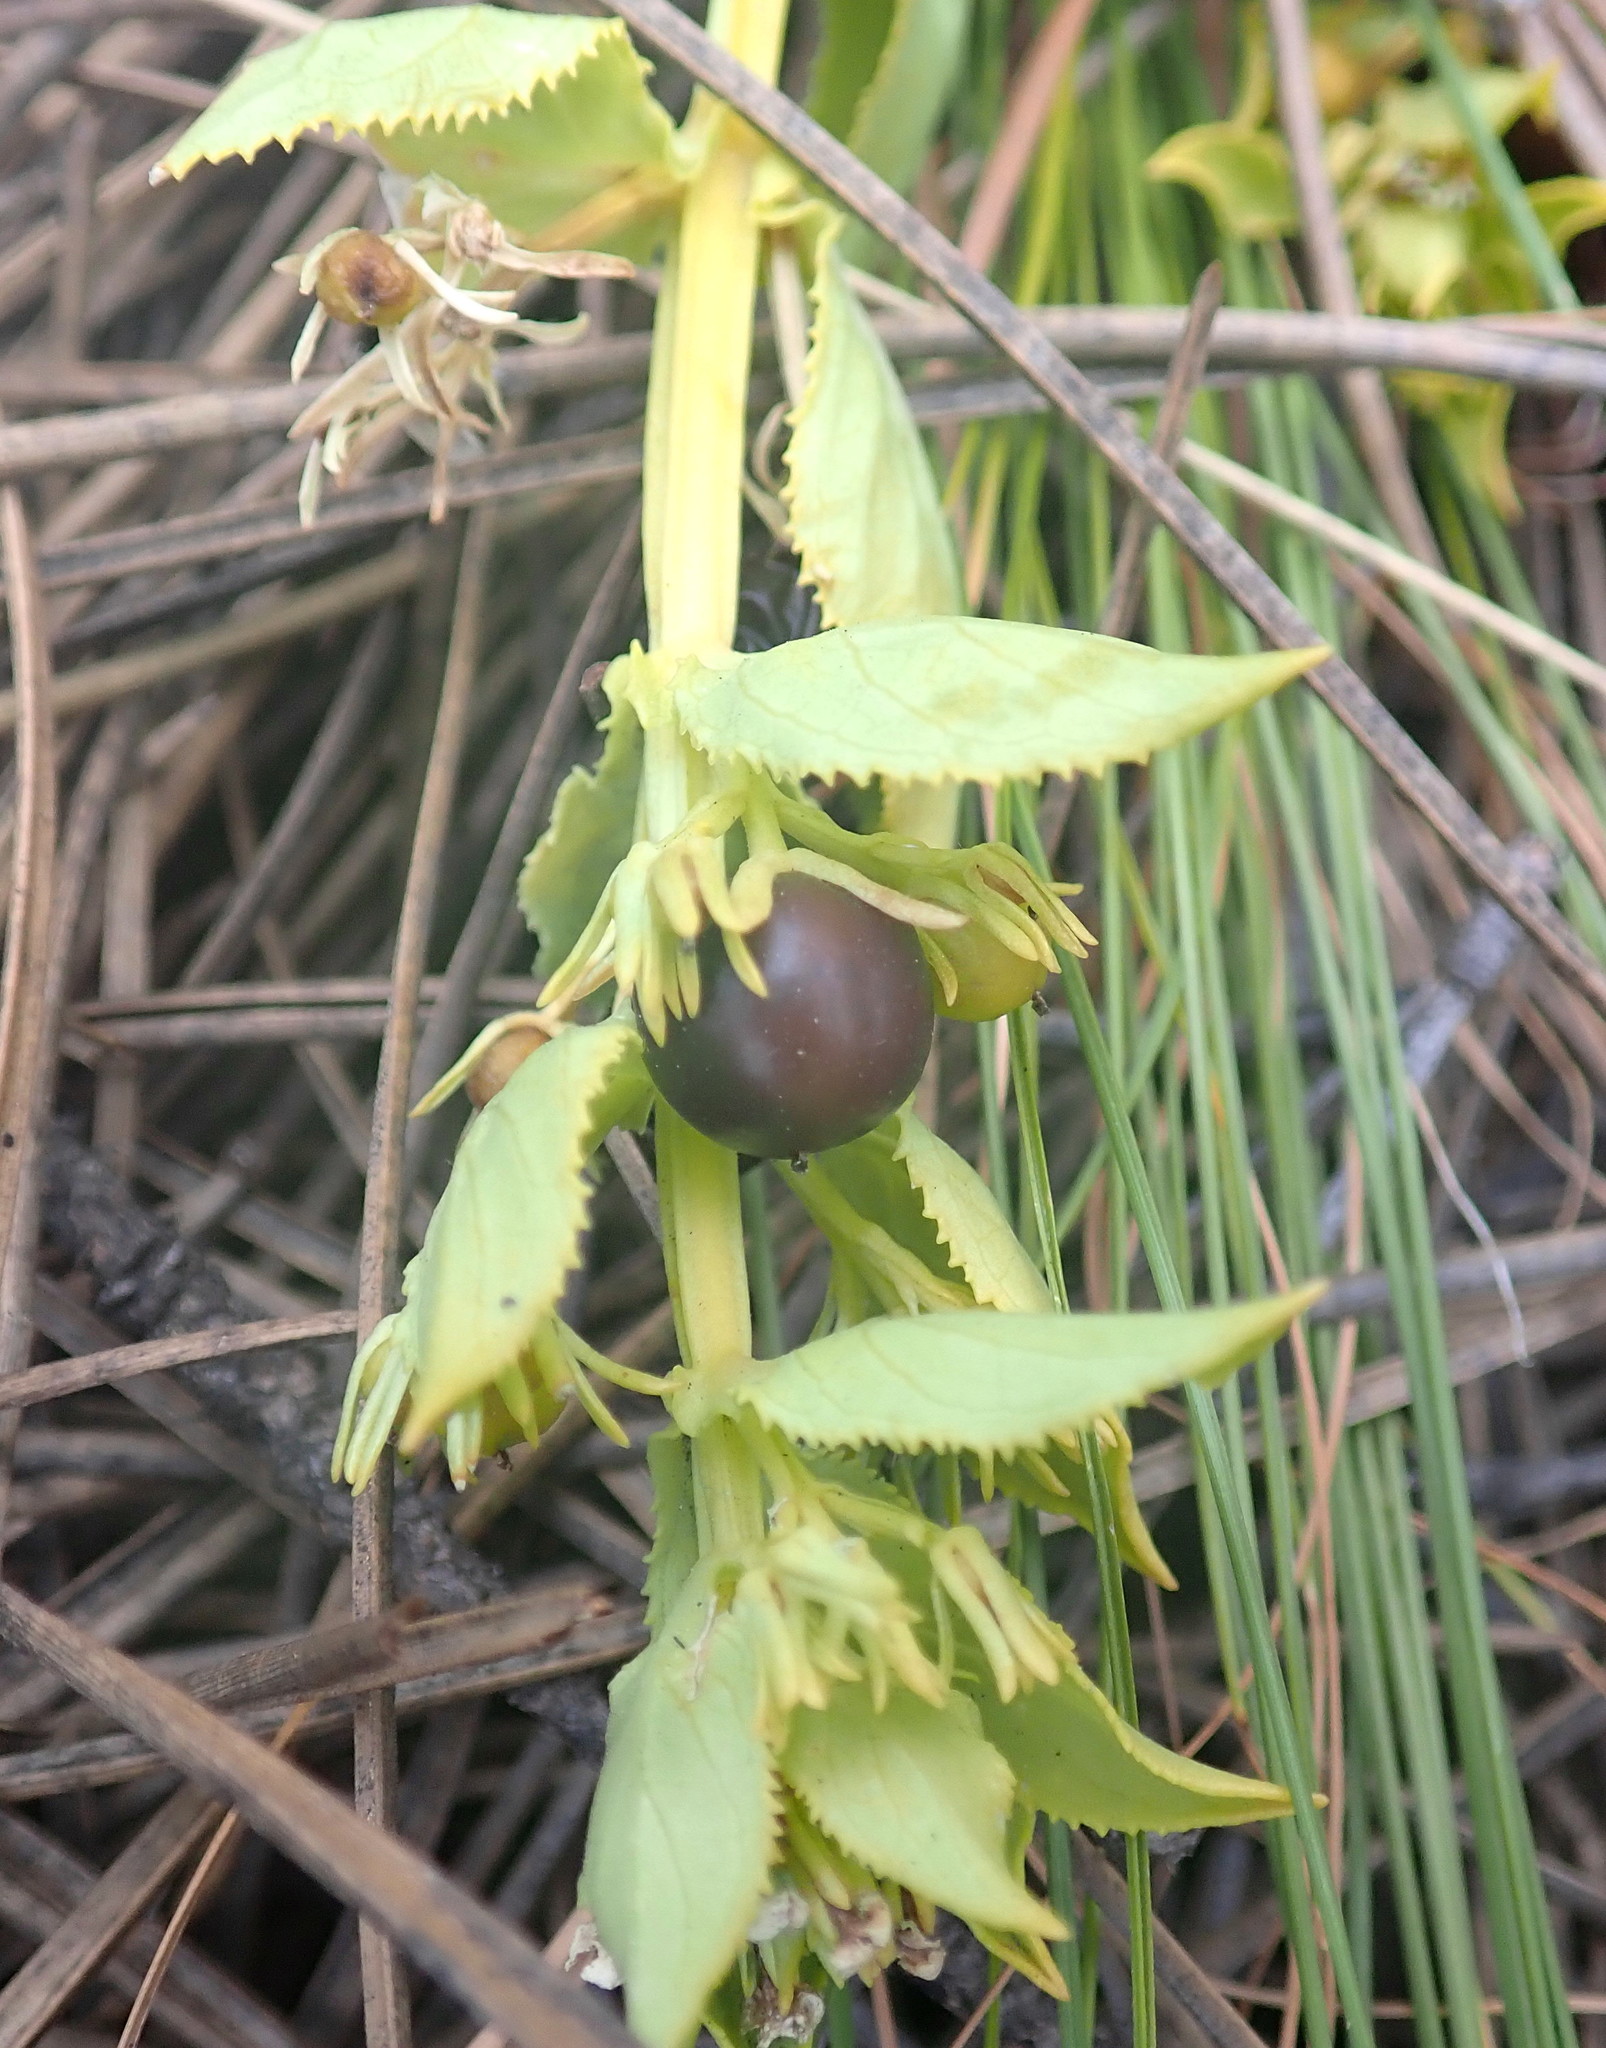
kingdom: Plantae
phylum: Tracheophyta
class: Magnoliopsida
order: Lamiales
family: Scrophulariaceae
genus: Teedia
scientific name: Teedia lucida
